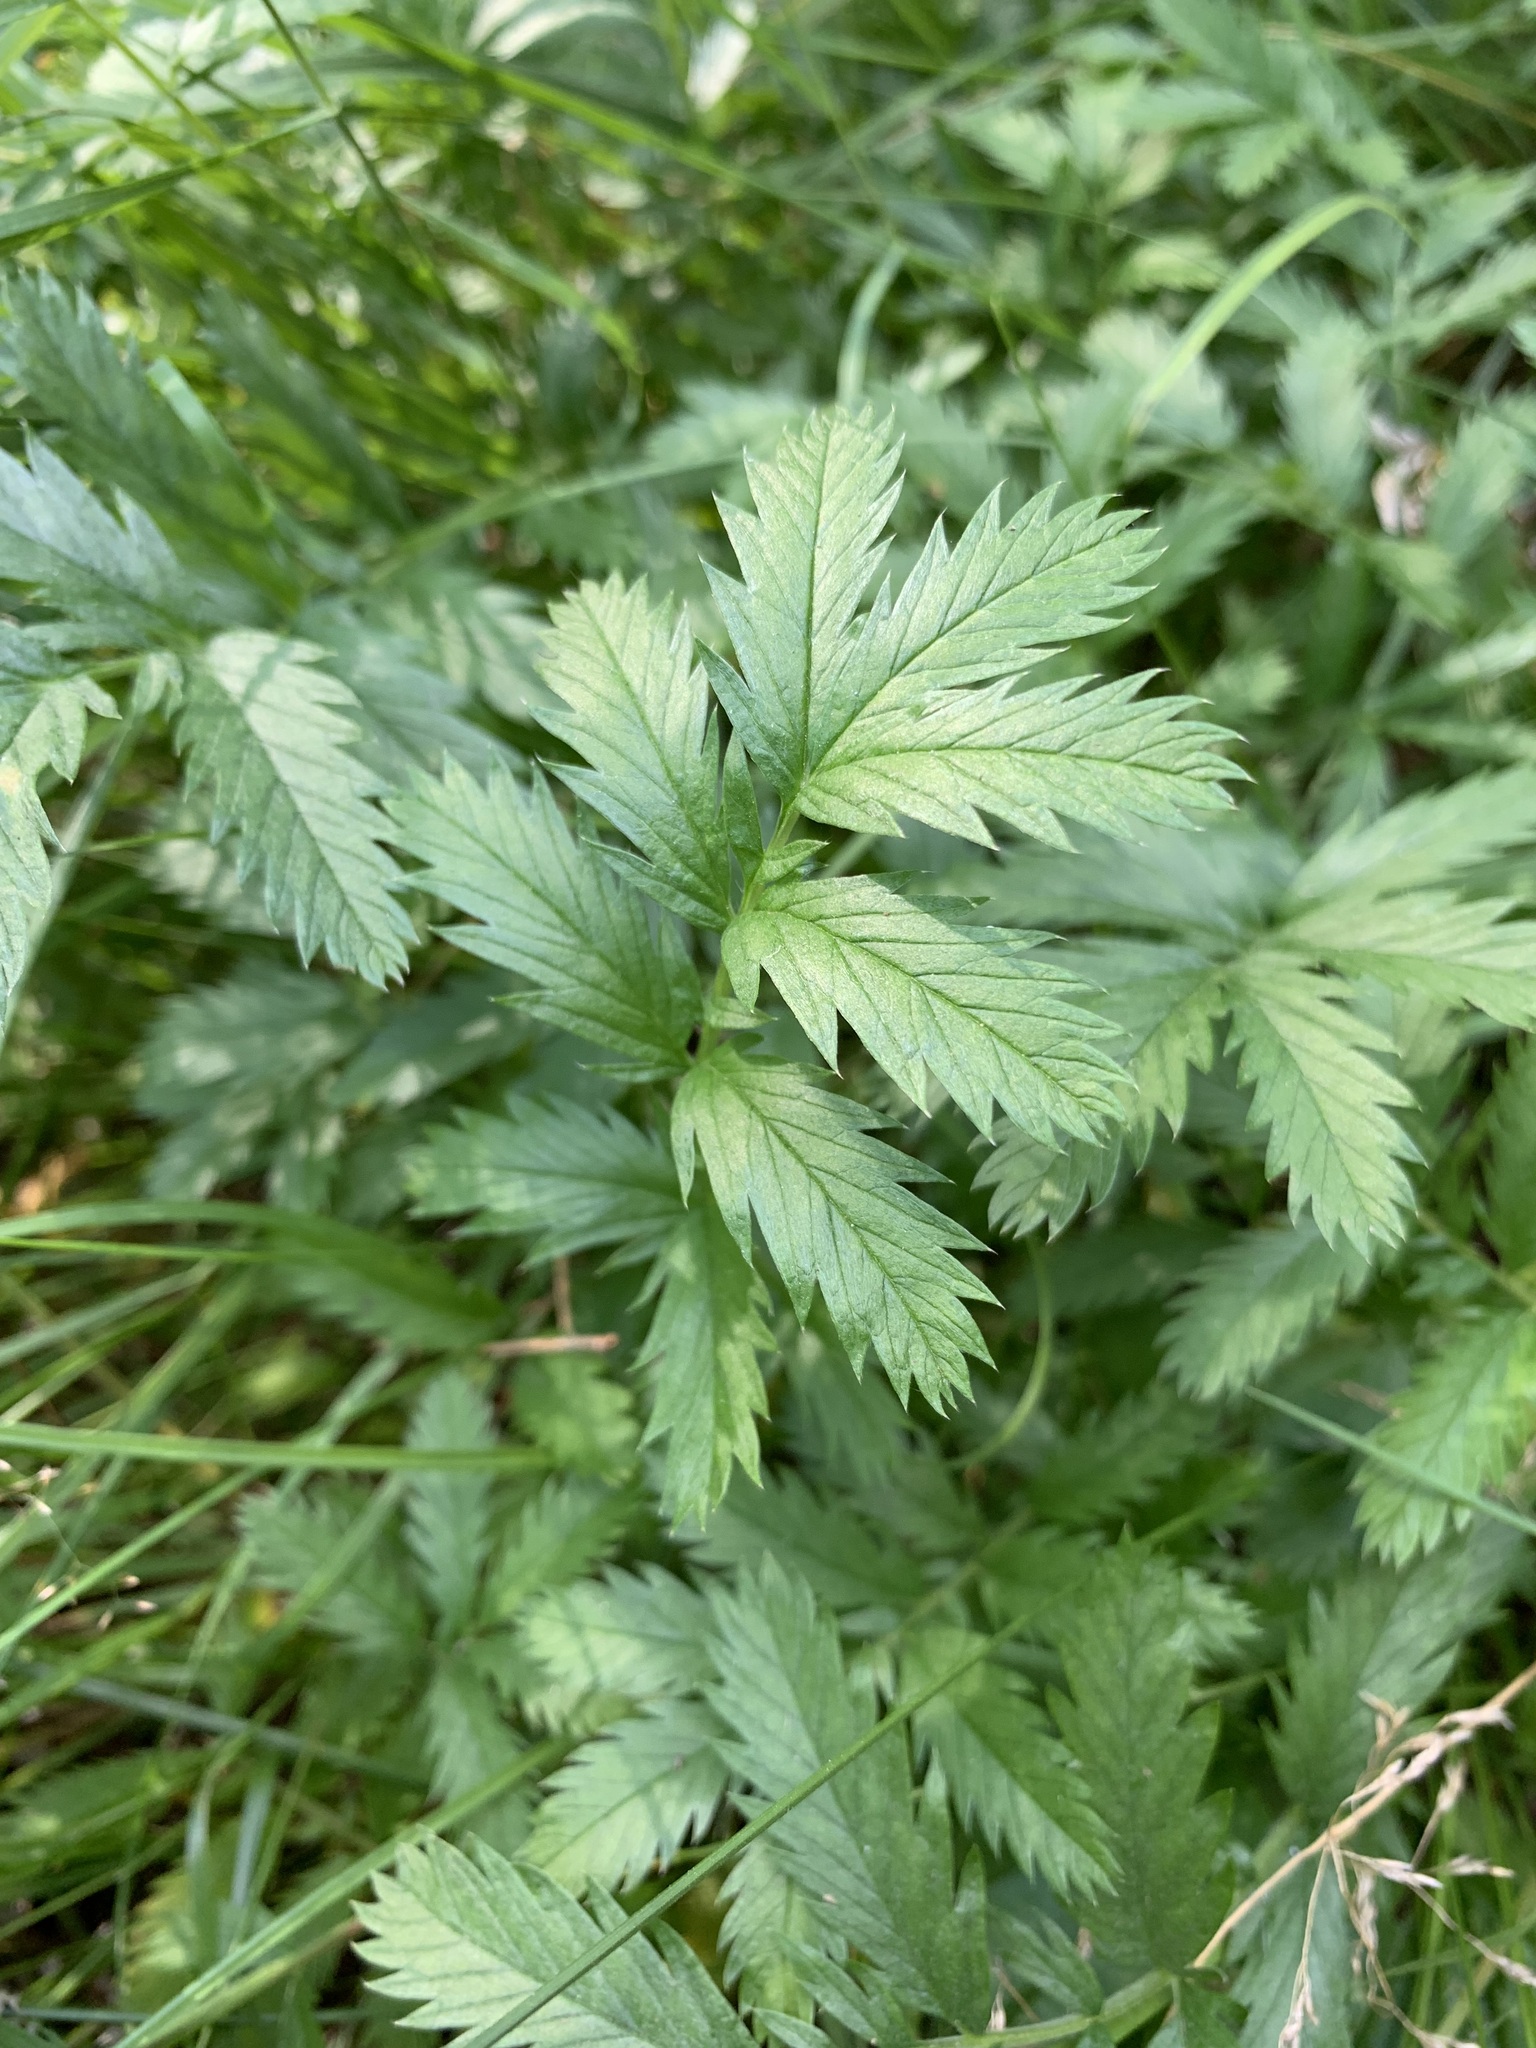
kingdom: Plantae
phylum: Tracheophyta
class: Magnoliopsida
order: Rosales
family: Rosaceae
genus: Argentina
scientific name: Argentina anserina
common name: Common silverweed
